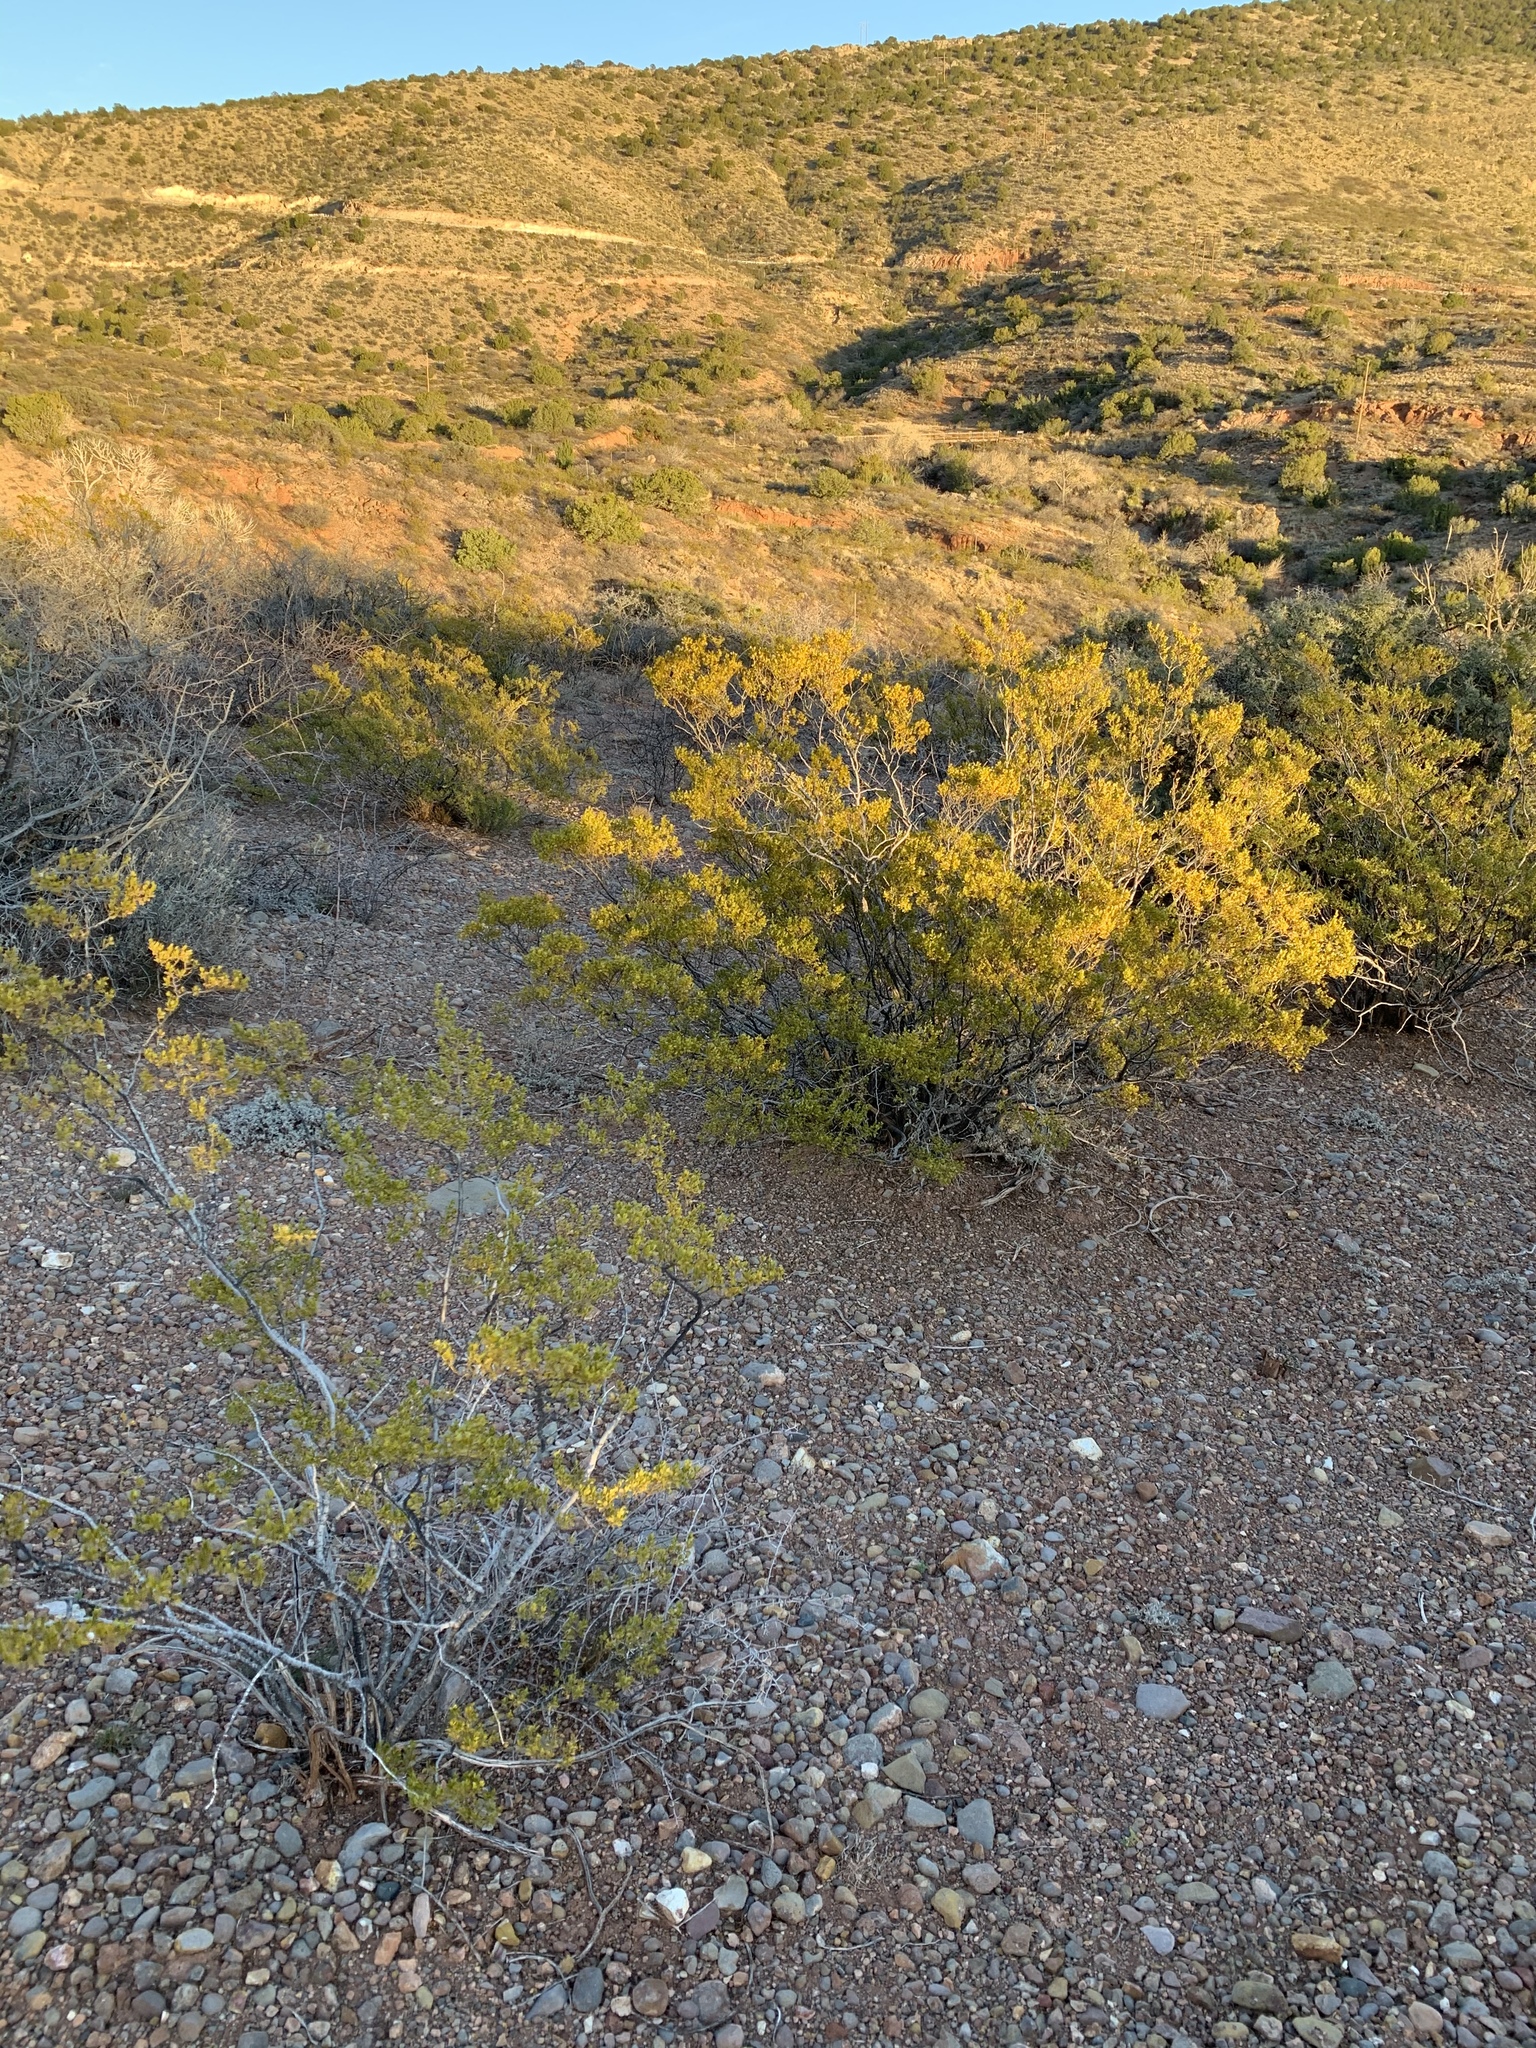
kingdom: Plantae
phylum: Tracheophyta
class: Magnoliopsida
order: Zygophyllales
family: Zygophyllaceae
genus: Larrea
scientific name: Larrea tridentata
